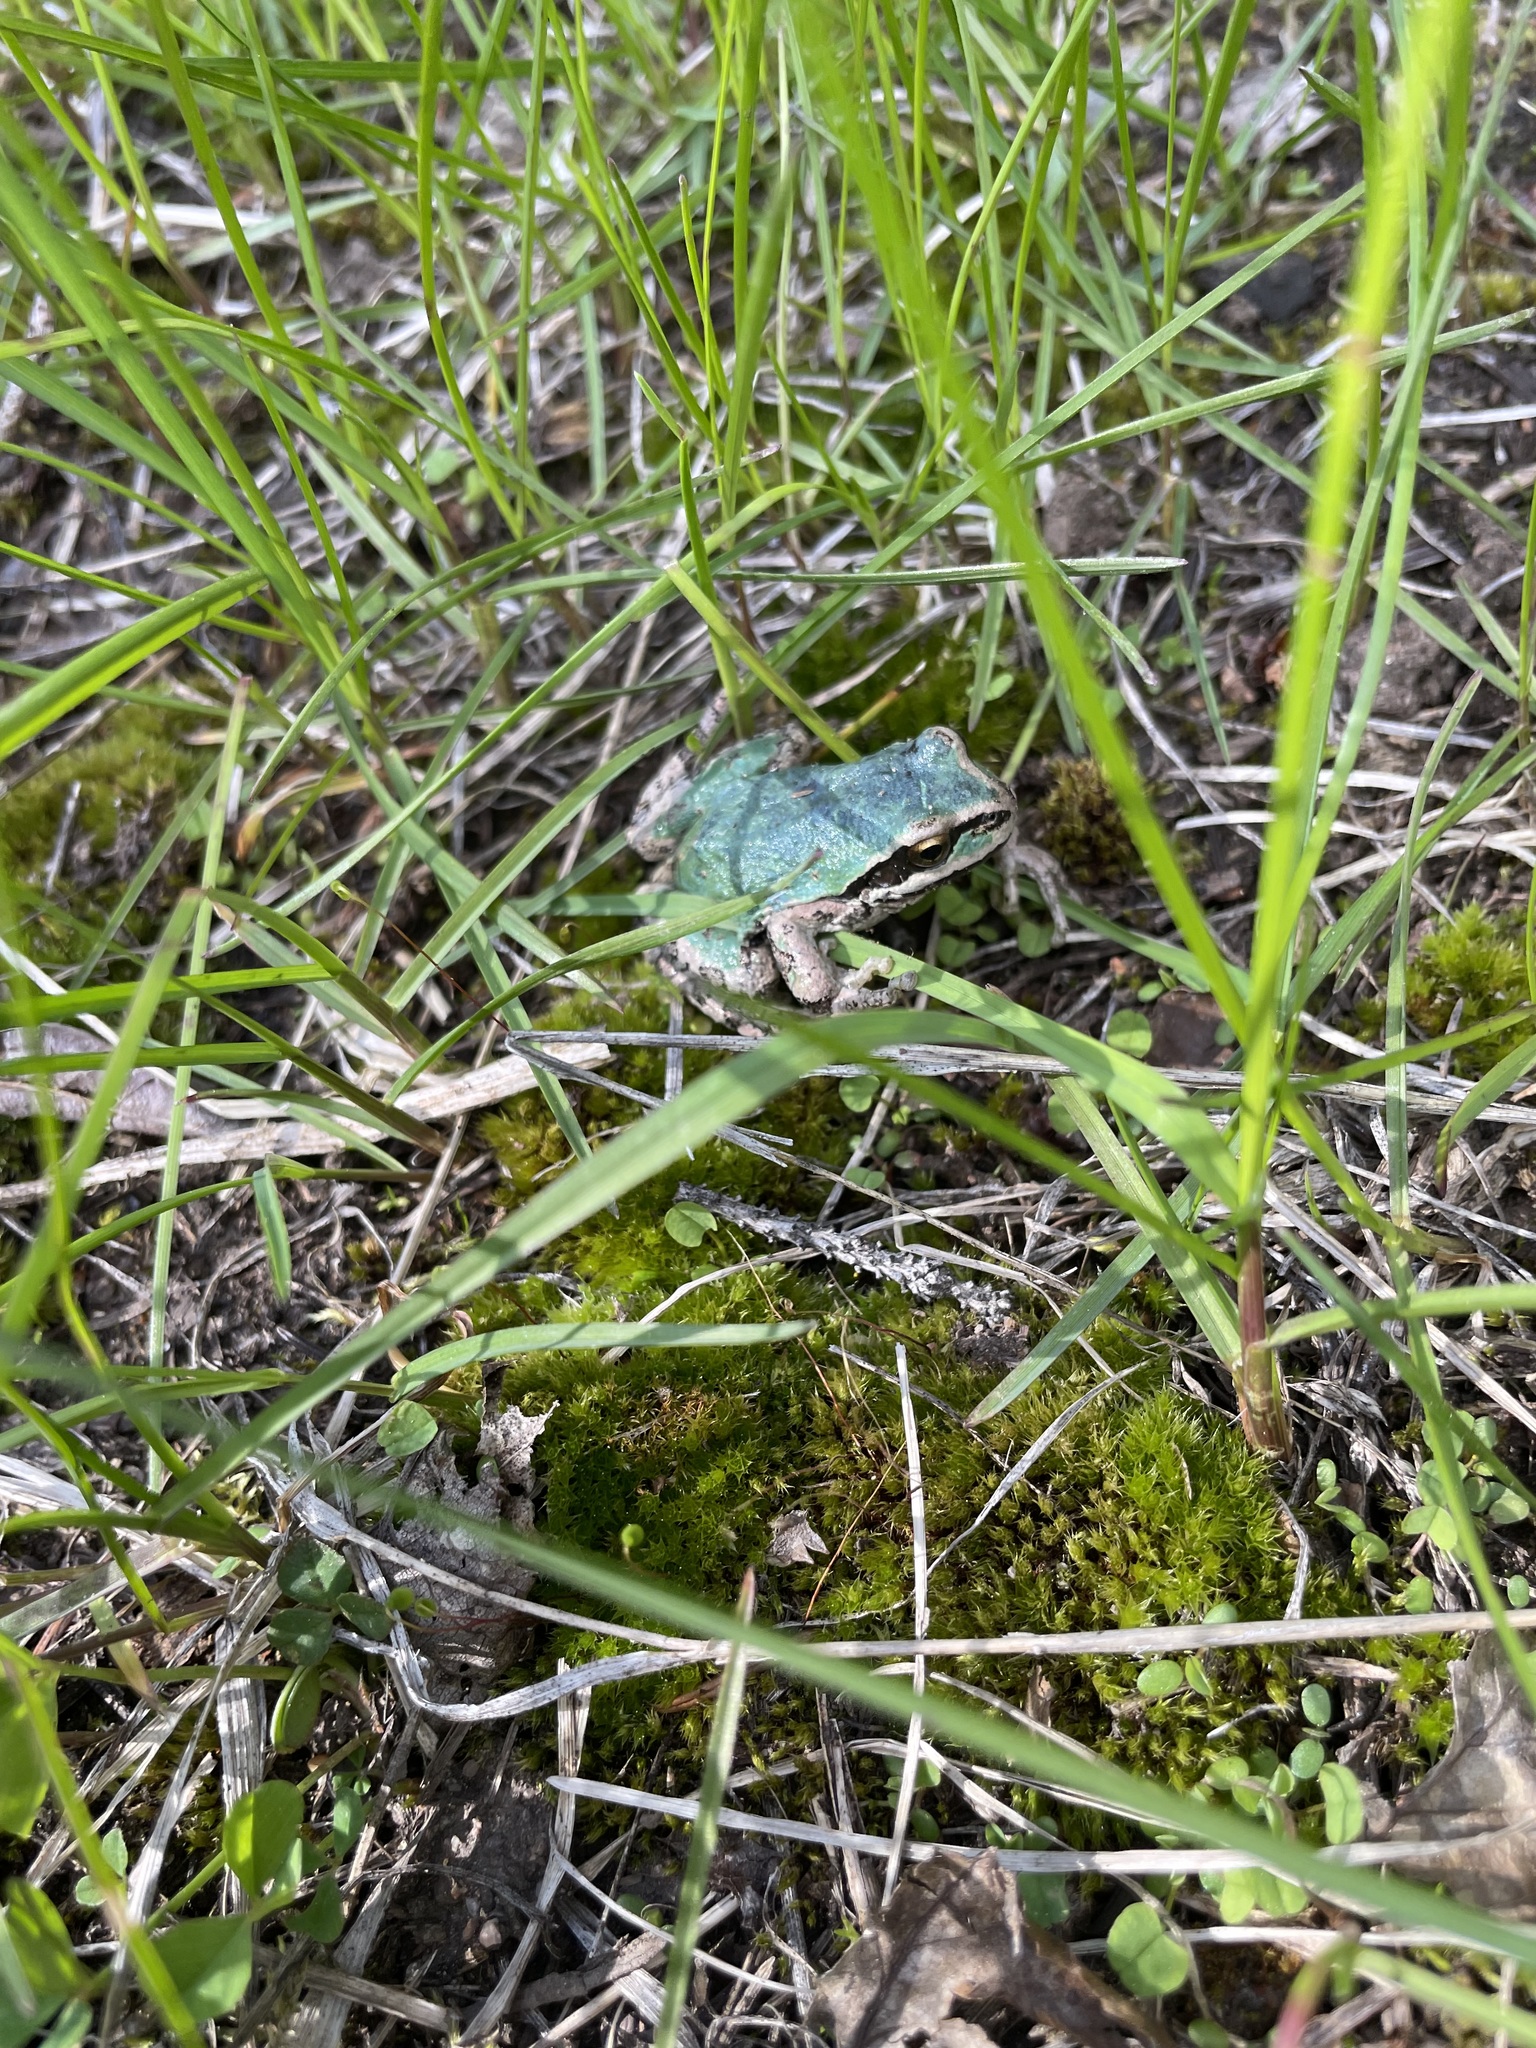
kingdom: Animalia
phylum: Chordata
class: Amphibia
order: Anura
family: Hylidae
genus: Pseudacris
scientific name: Pseudacris regilla
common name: Pacific chorus frog
